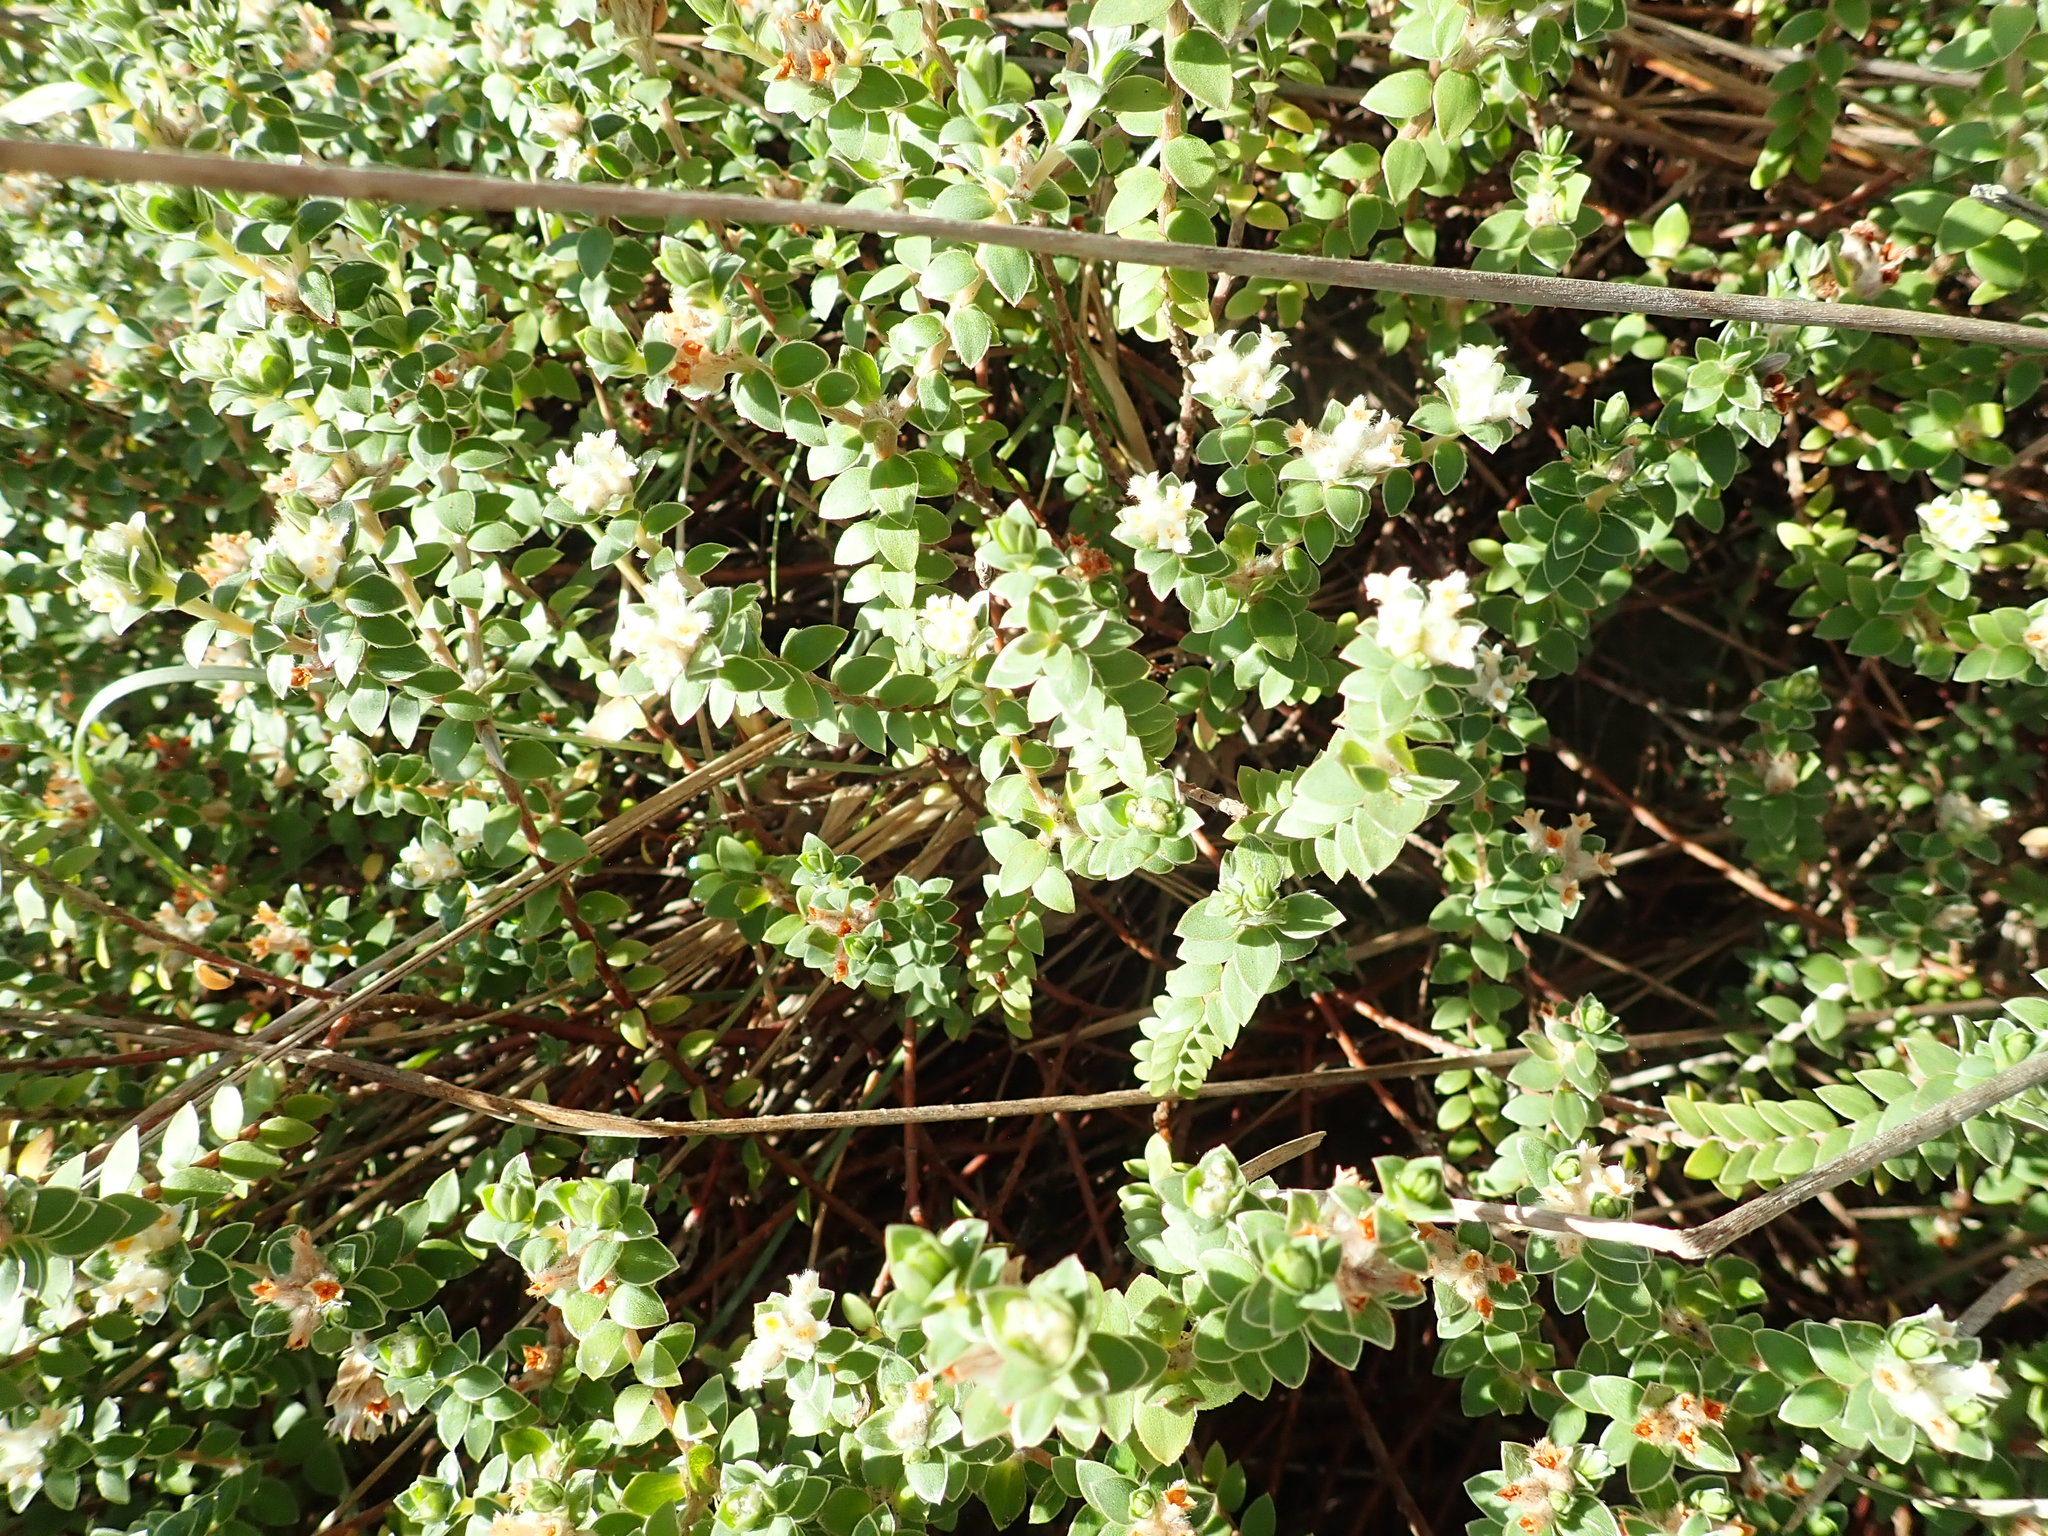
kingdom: Plantae
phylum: Tracheophyta
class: Magnoliopsida
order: Malvales
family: Thymelaeaceae
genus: Pimelea
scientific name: Pimelea villosa
